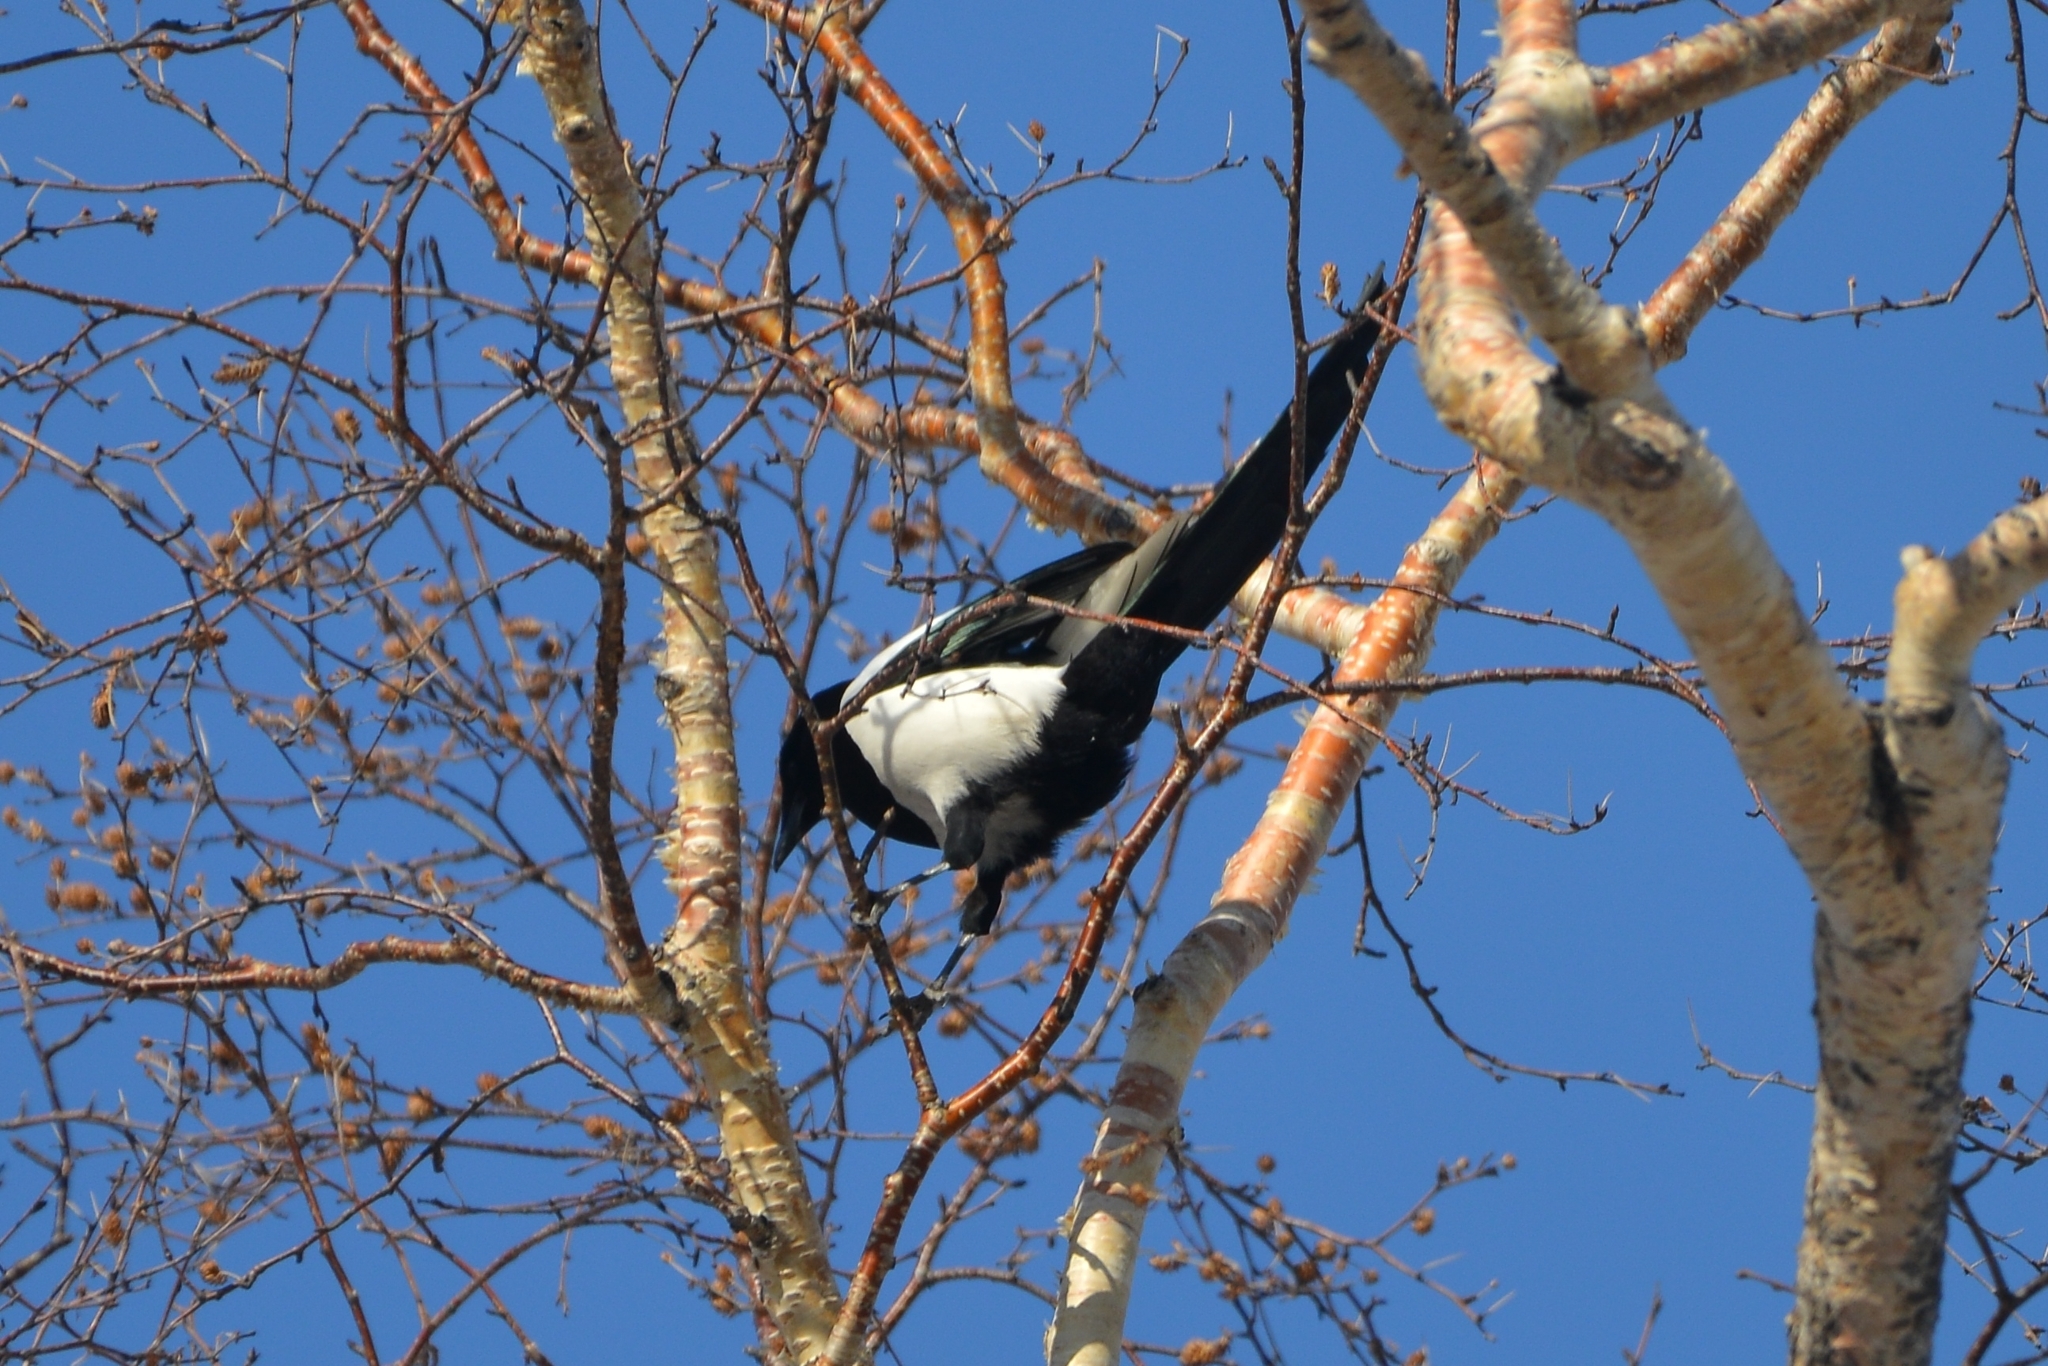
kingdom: Animalia
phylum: Chordata
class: Aves
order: Passeriformes
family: Corvidae
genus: Pica
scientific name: Pica pica
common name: Eurasian magpie
